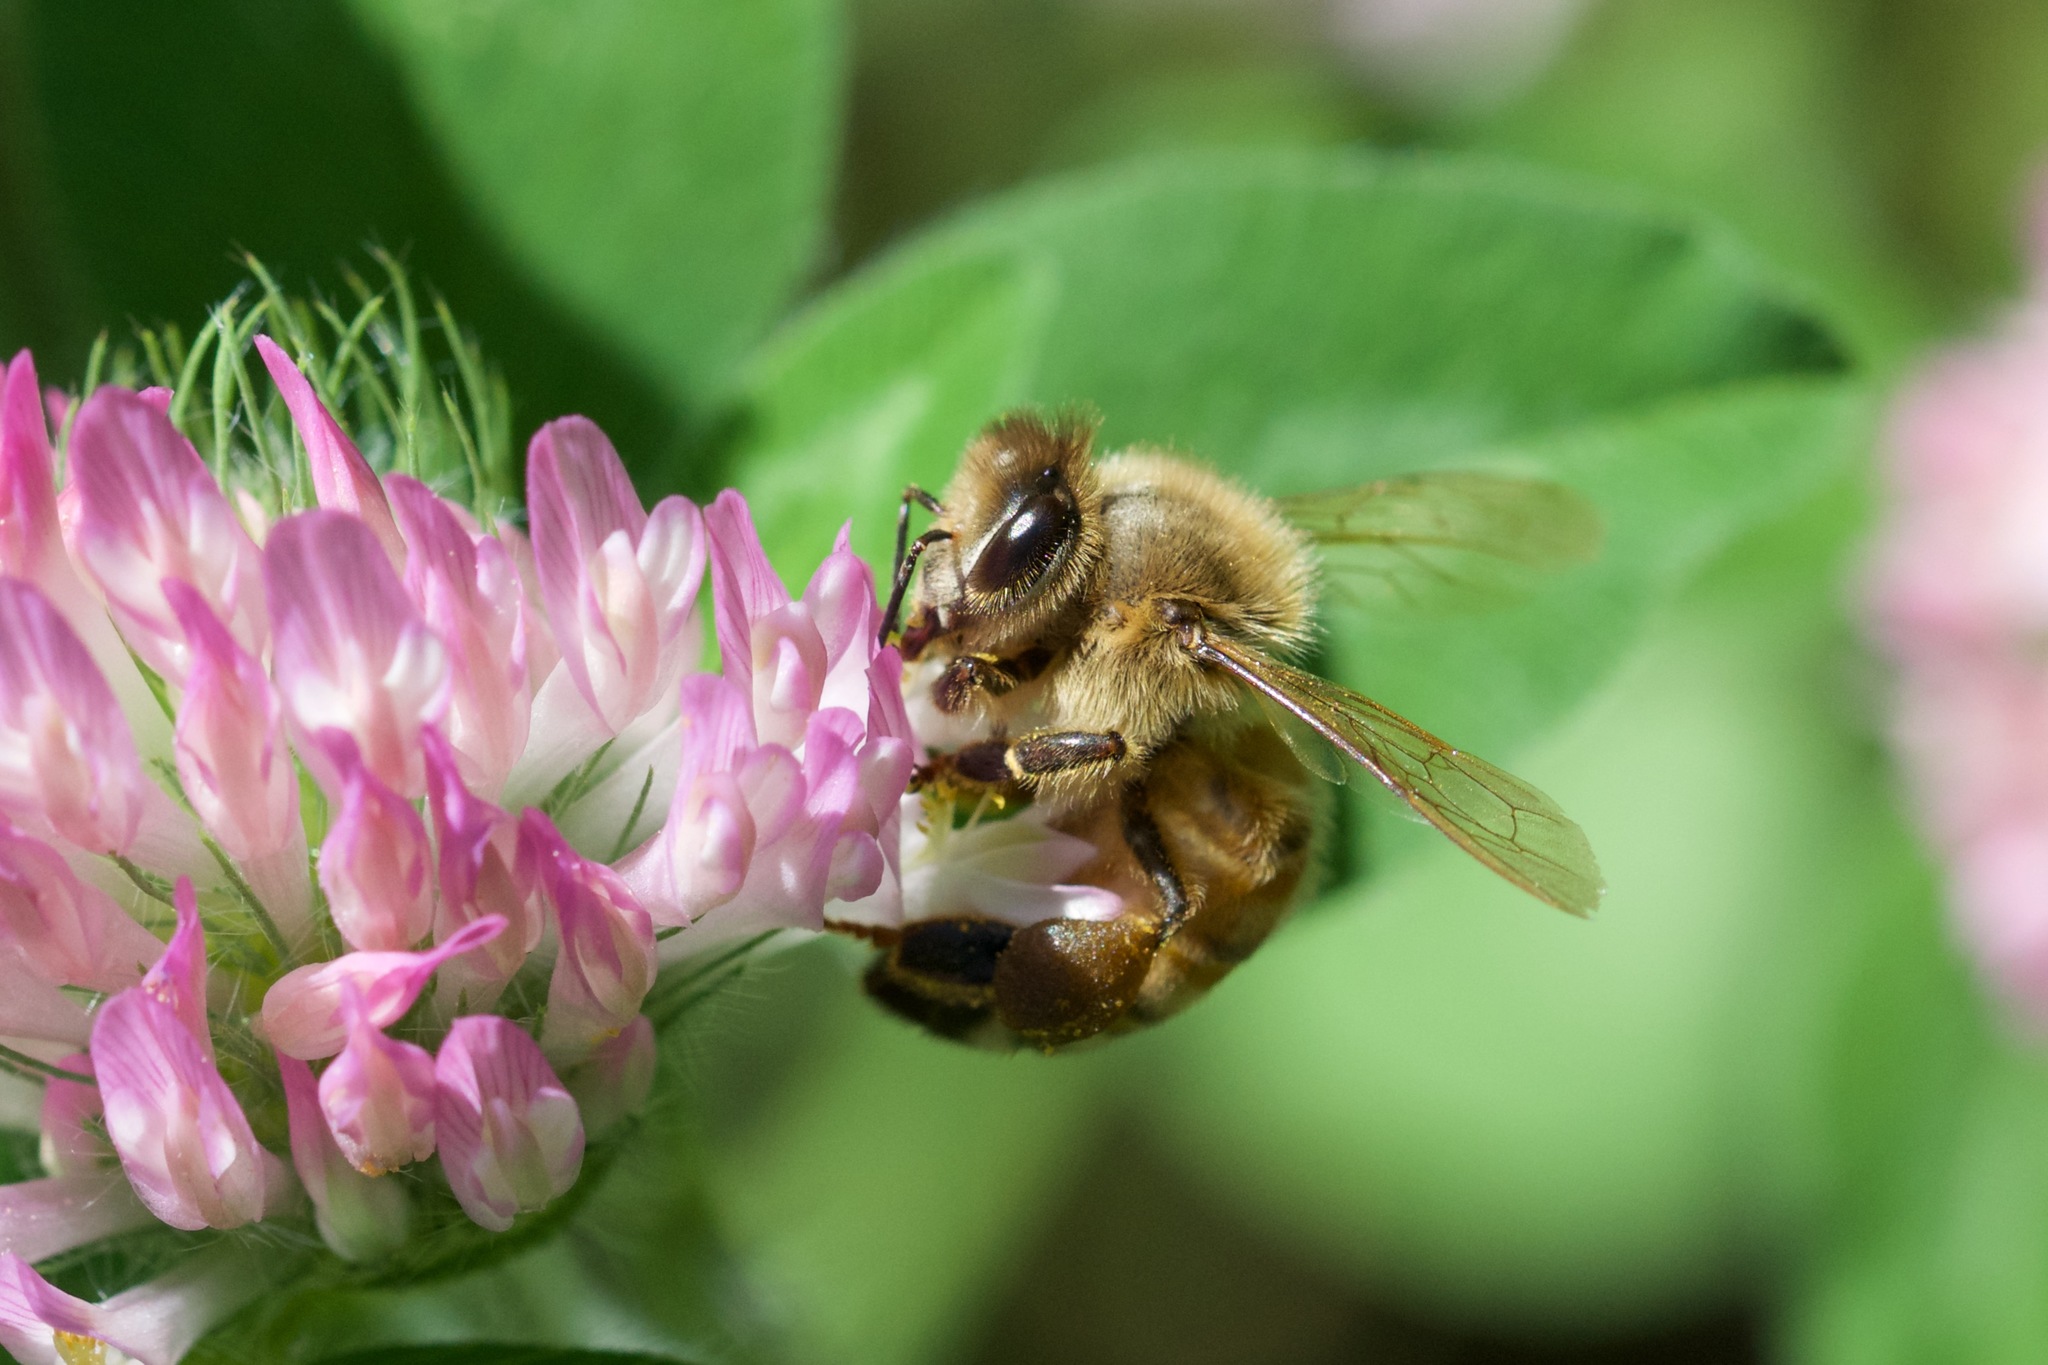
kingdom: Animalia
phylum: Arthropoda
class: Insecta
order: Hymenoptera
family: Apidae
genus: Apis
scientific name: Apis mellifera
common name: Honey bee
